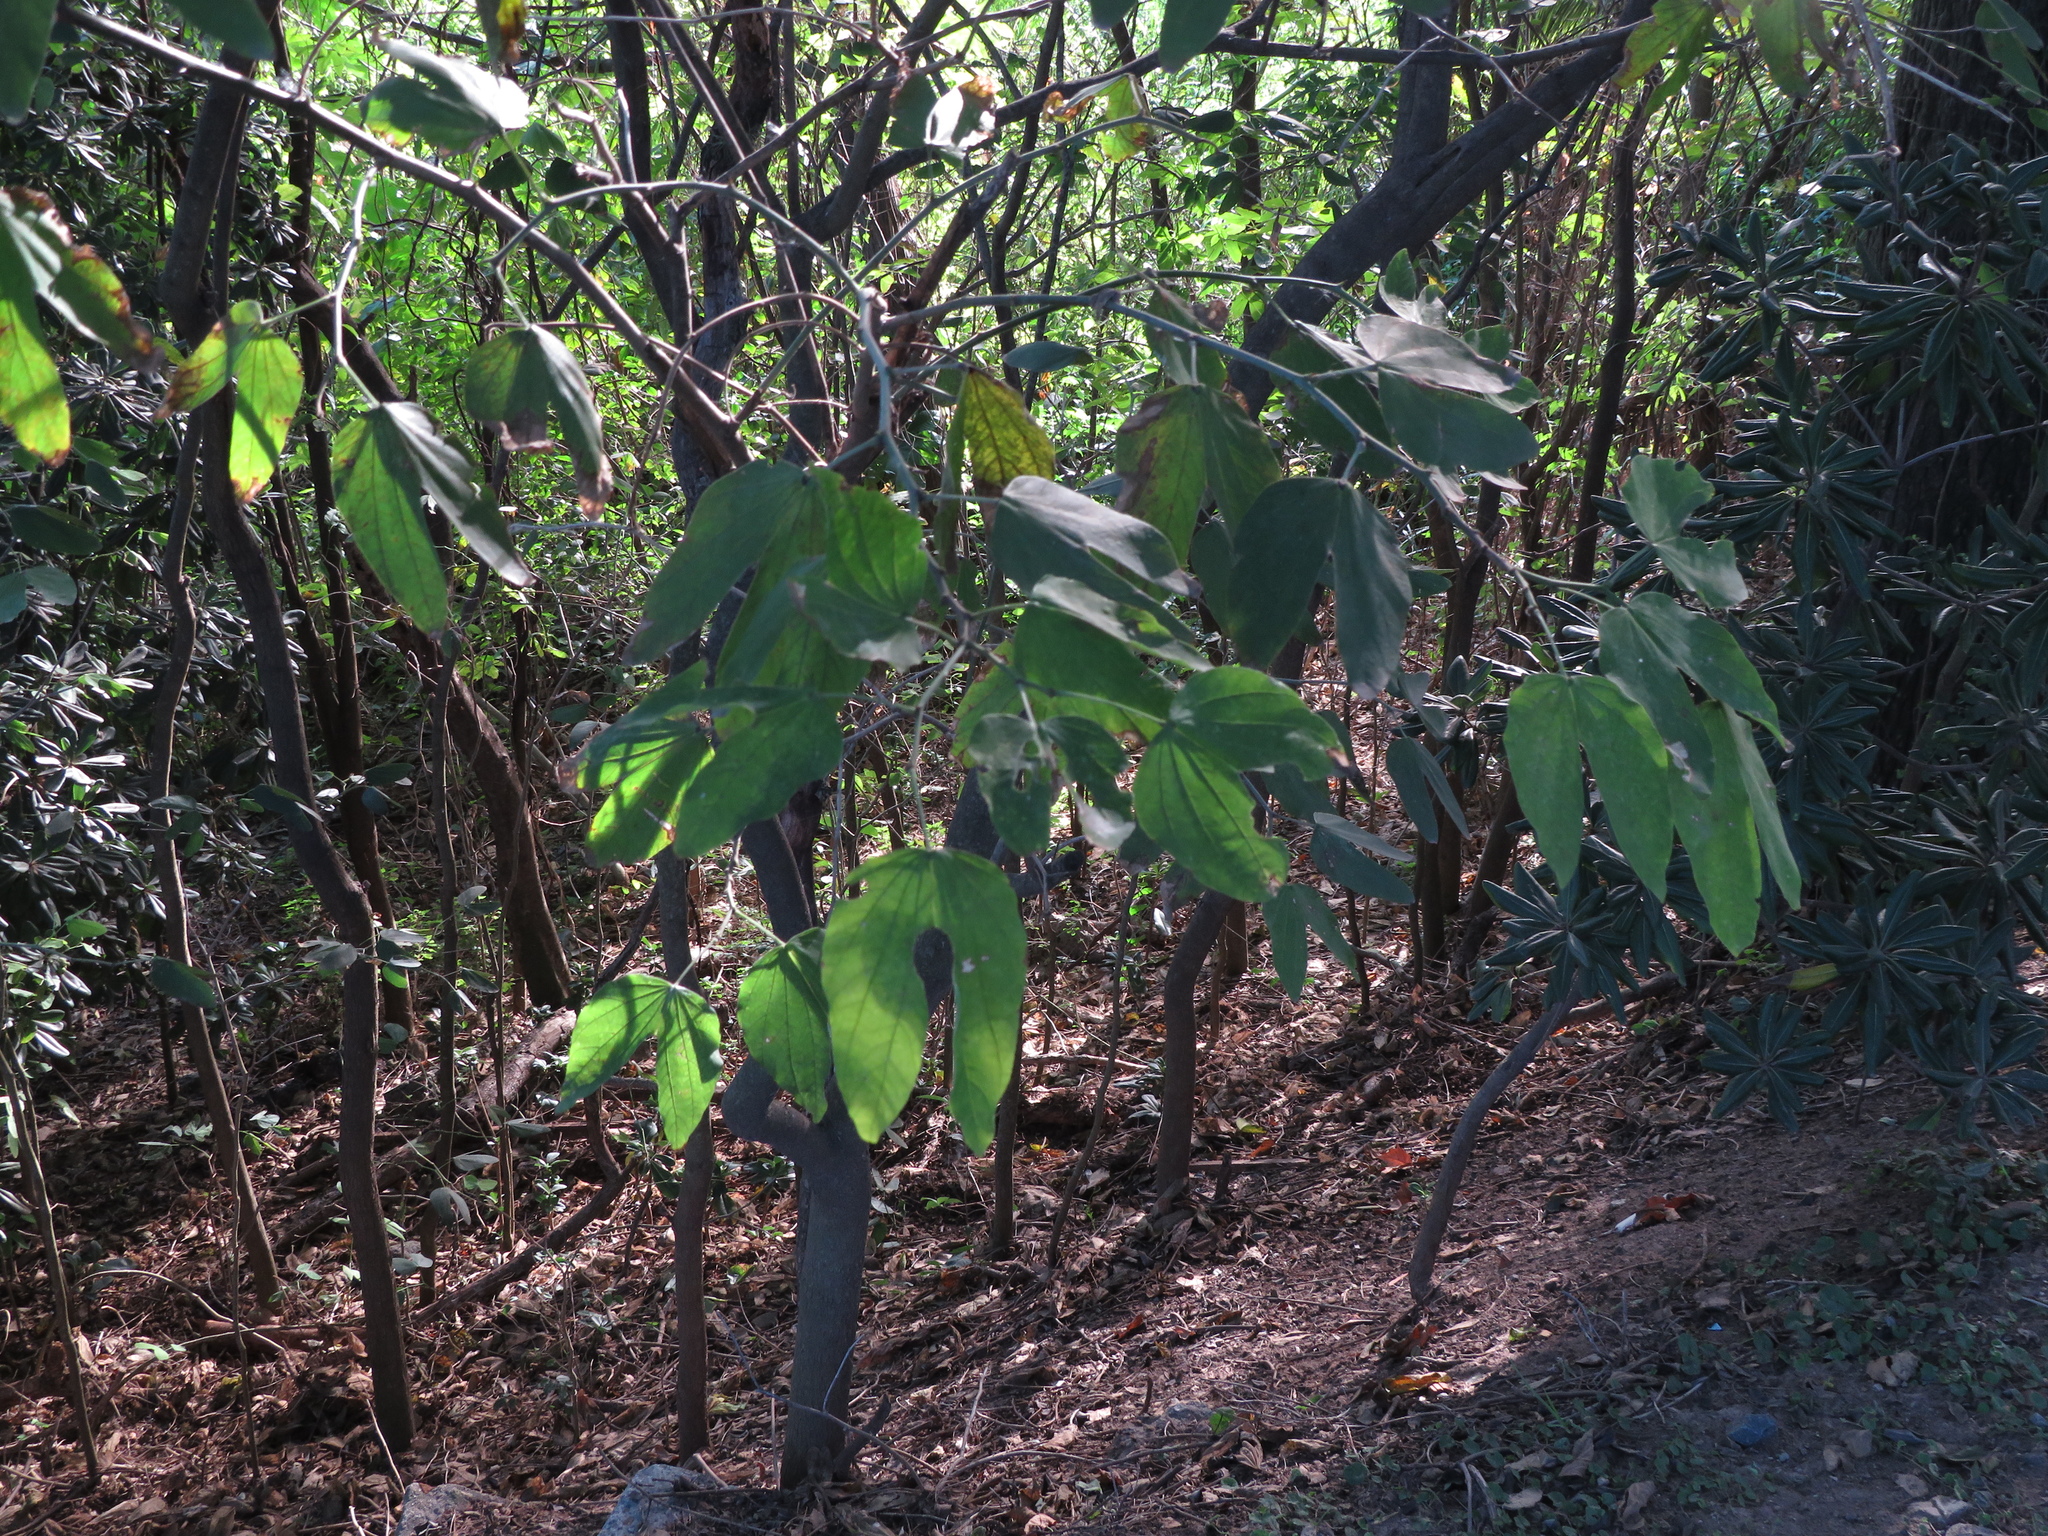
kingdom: Plantae
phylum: Tracheophyta
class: Magnoliopsida
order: Fabales
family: Fabaceae
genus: Bauhinia
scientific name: Bauhinia forficata
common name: Orchid tree
